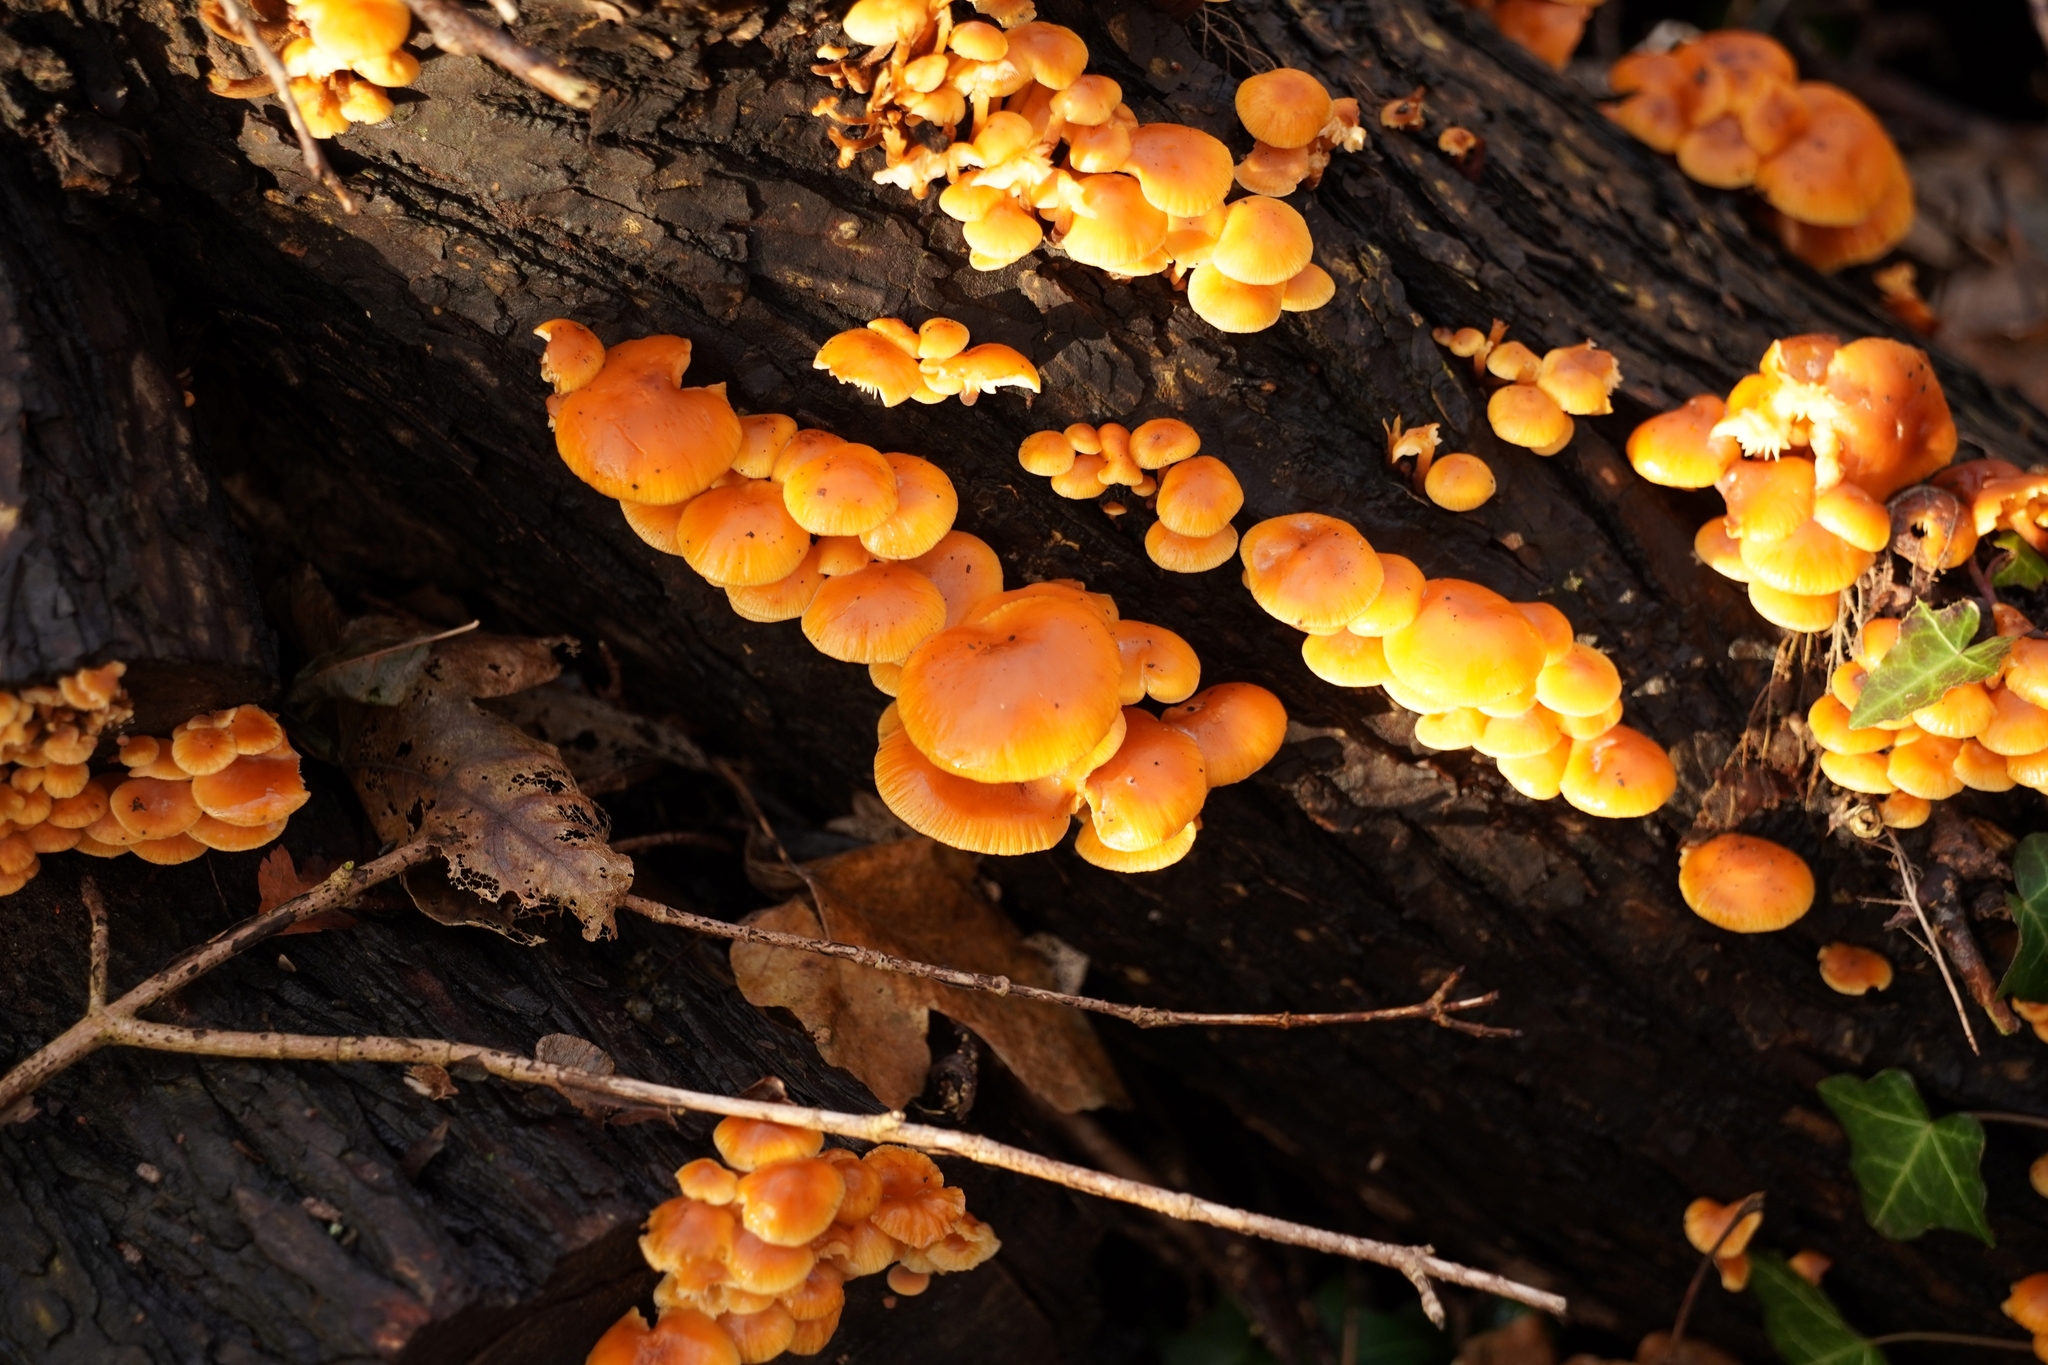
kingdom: Fungi
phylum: Basidiomycota
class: Agaricomycetes
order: Agaricales
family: Physalacriaceae
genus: Flammulina
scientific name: Flammulina
